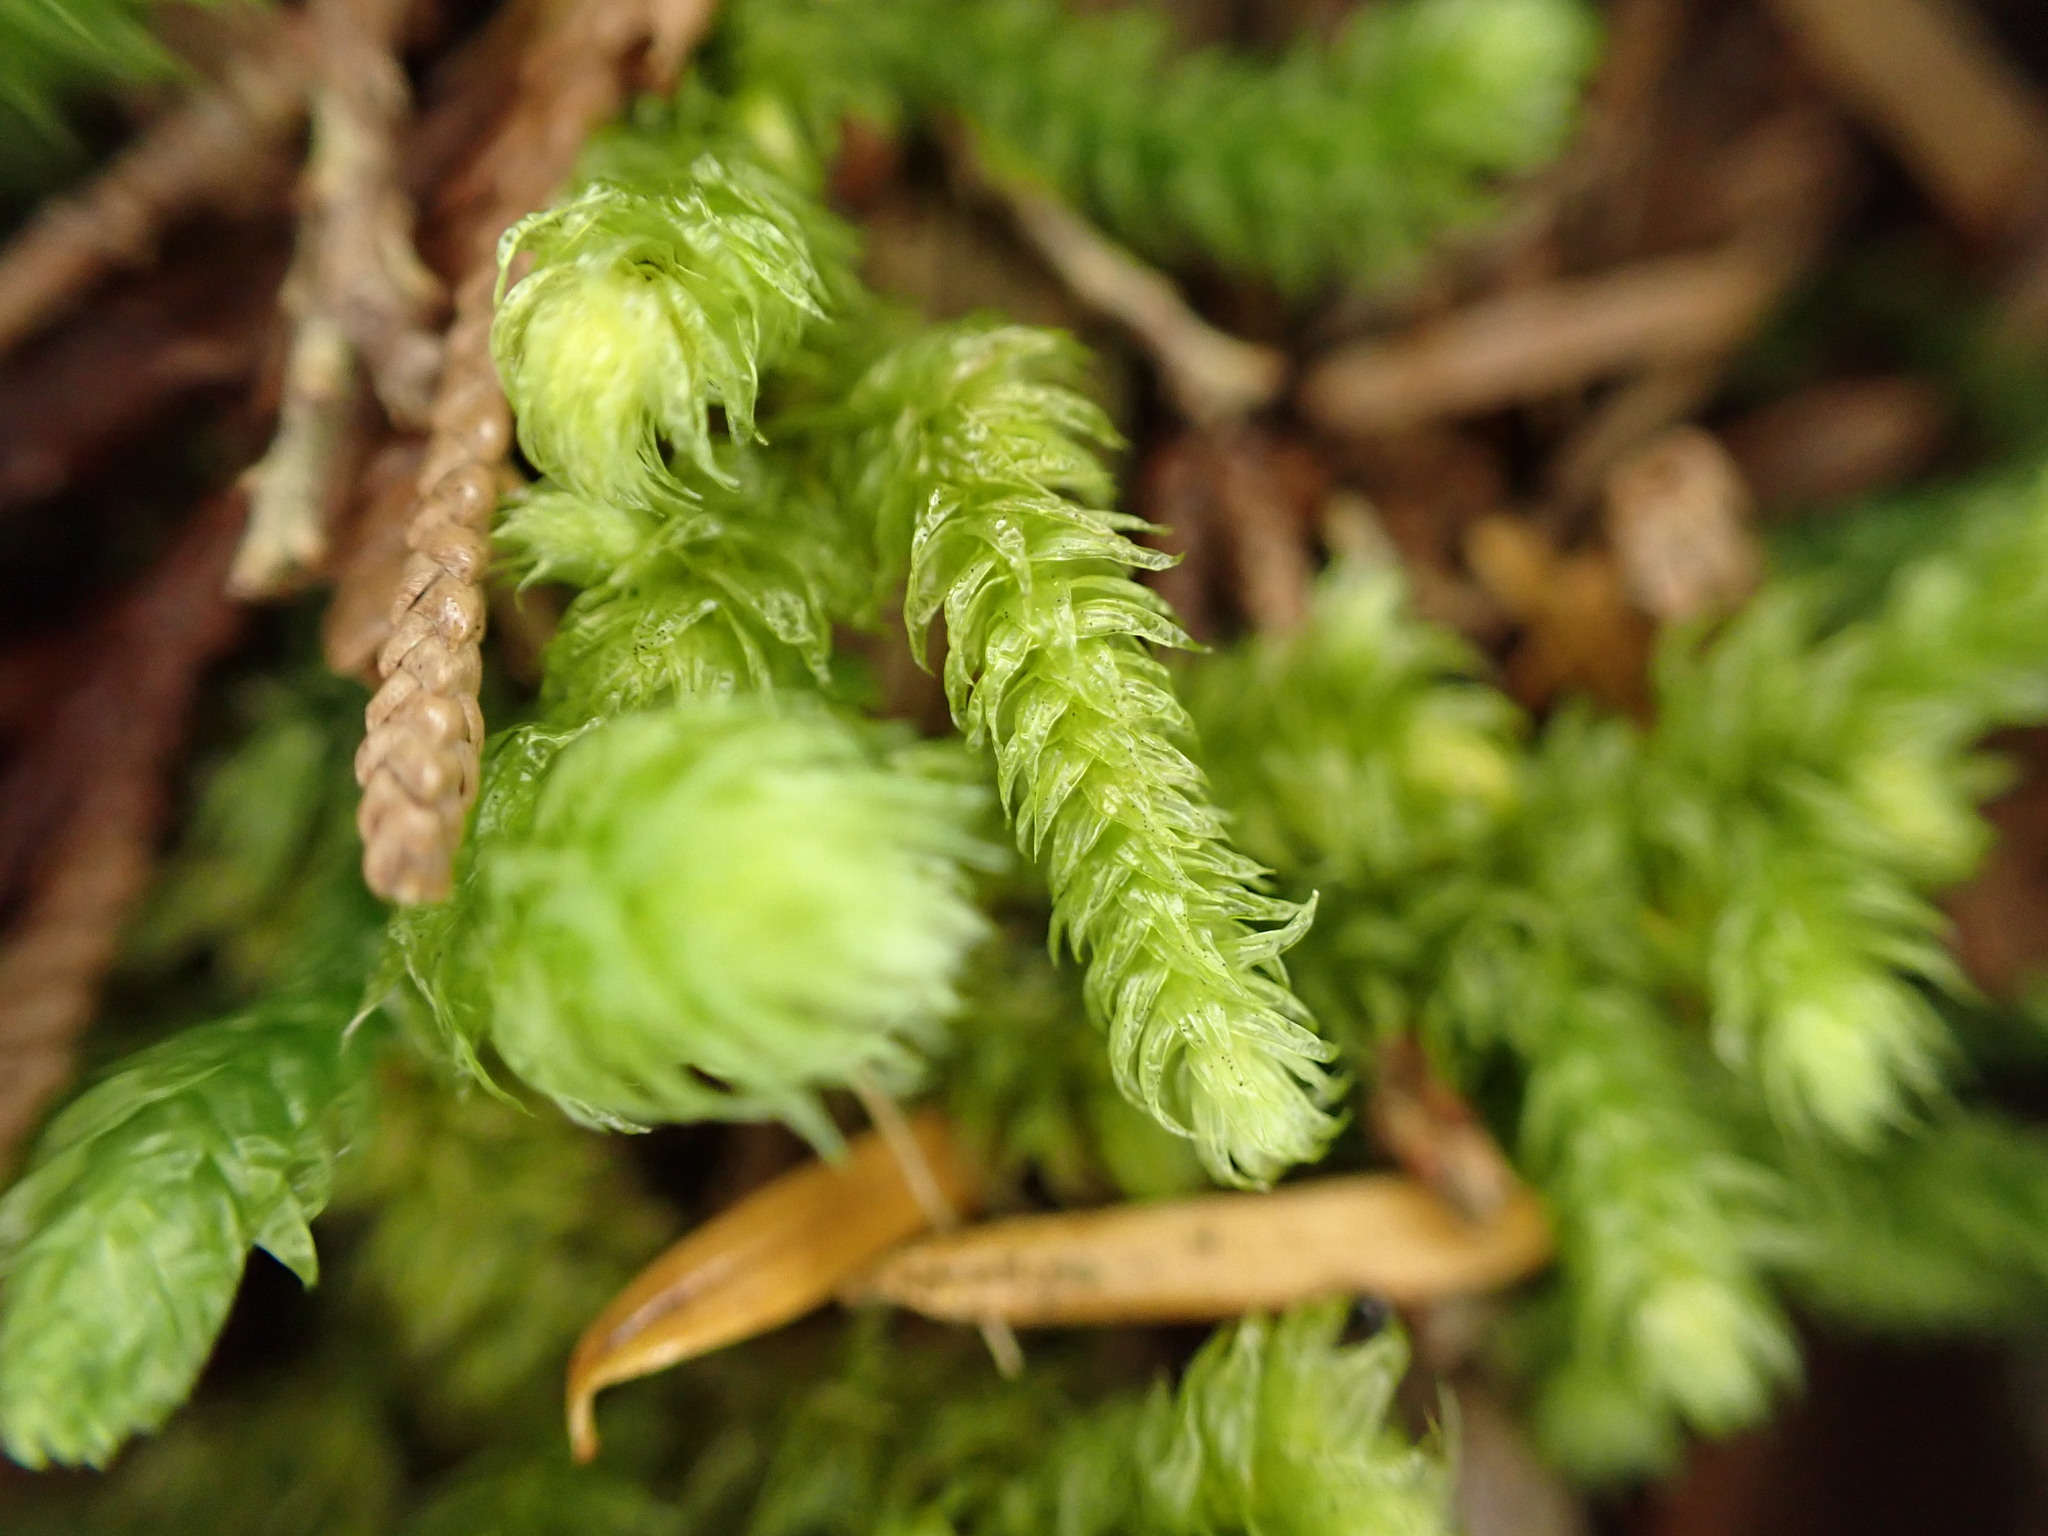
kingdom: Plantae
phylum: Bryophyta
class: Bryopsida
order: Hypnales
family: Hylocomiaceae
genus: Rhytidiopsis
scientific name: Rhytidiopsis robusta
